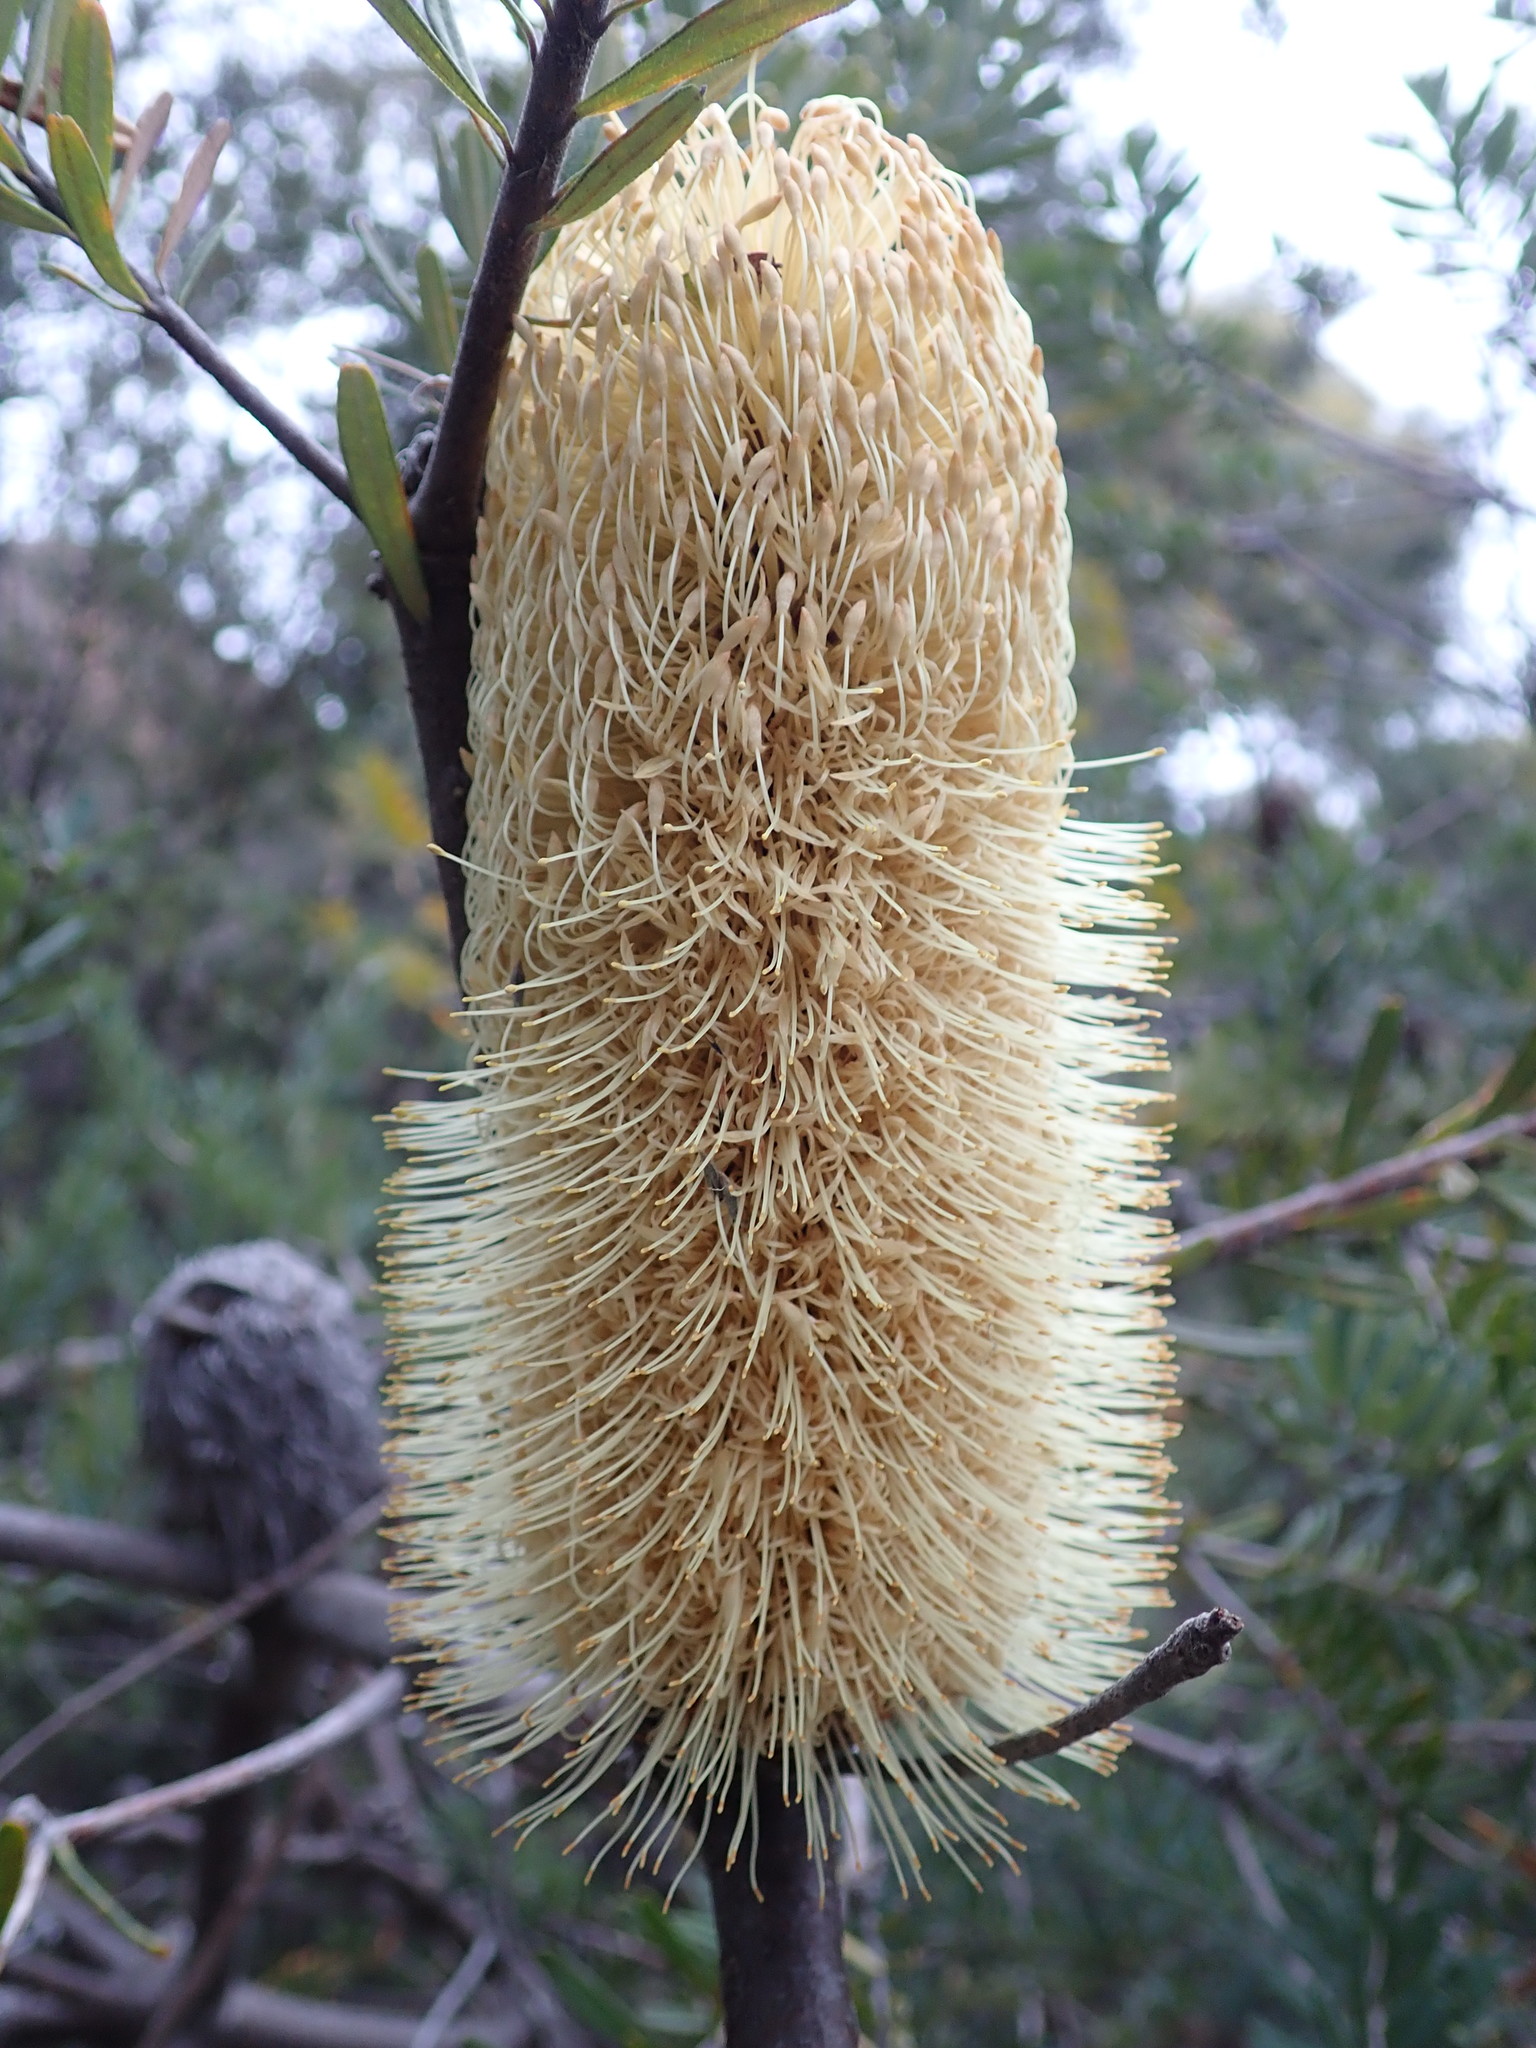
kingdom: Plantae
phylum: Tracheophyta
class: Magnoliopsida
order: Proteales
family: Proteaceae
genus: Banksia
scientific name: Banksia marginata
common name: Silver banksia
